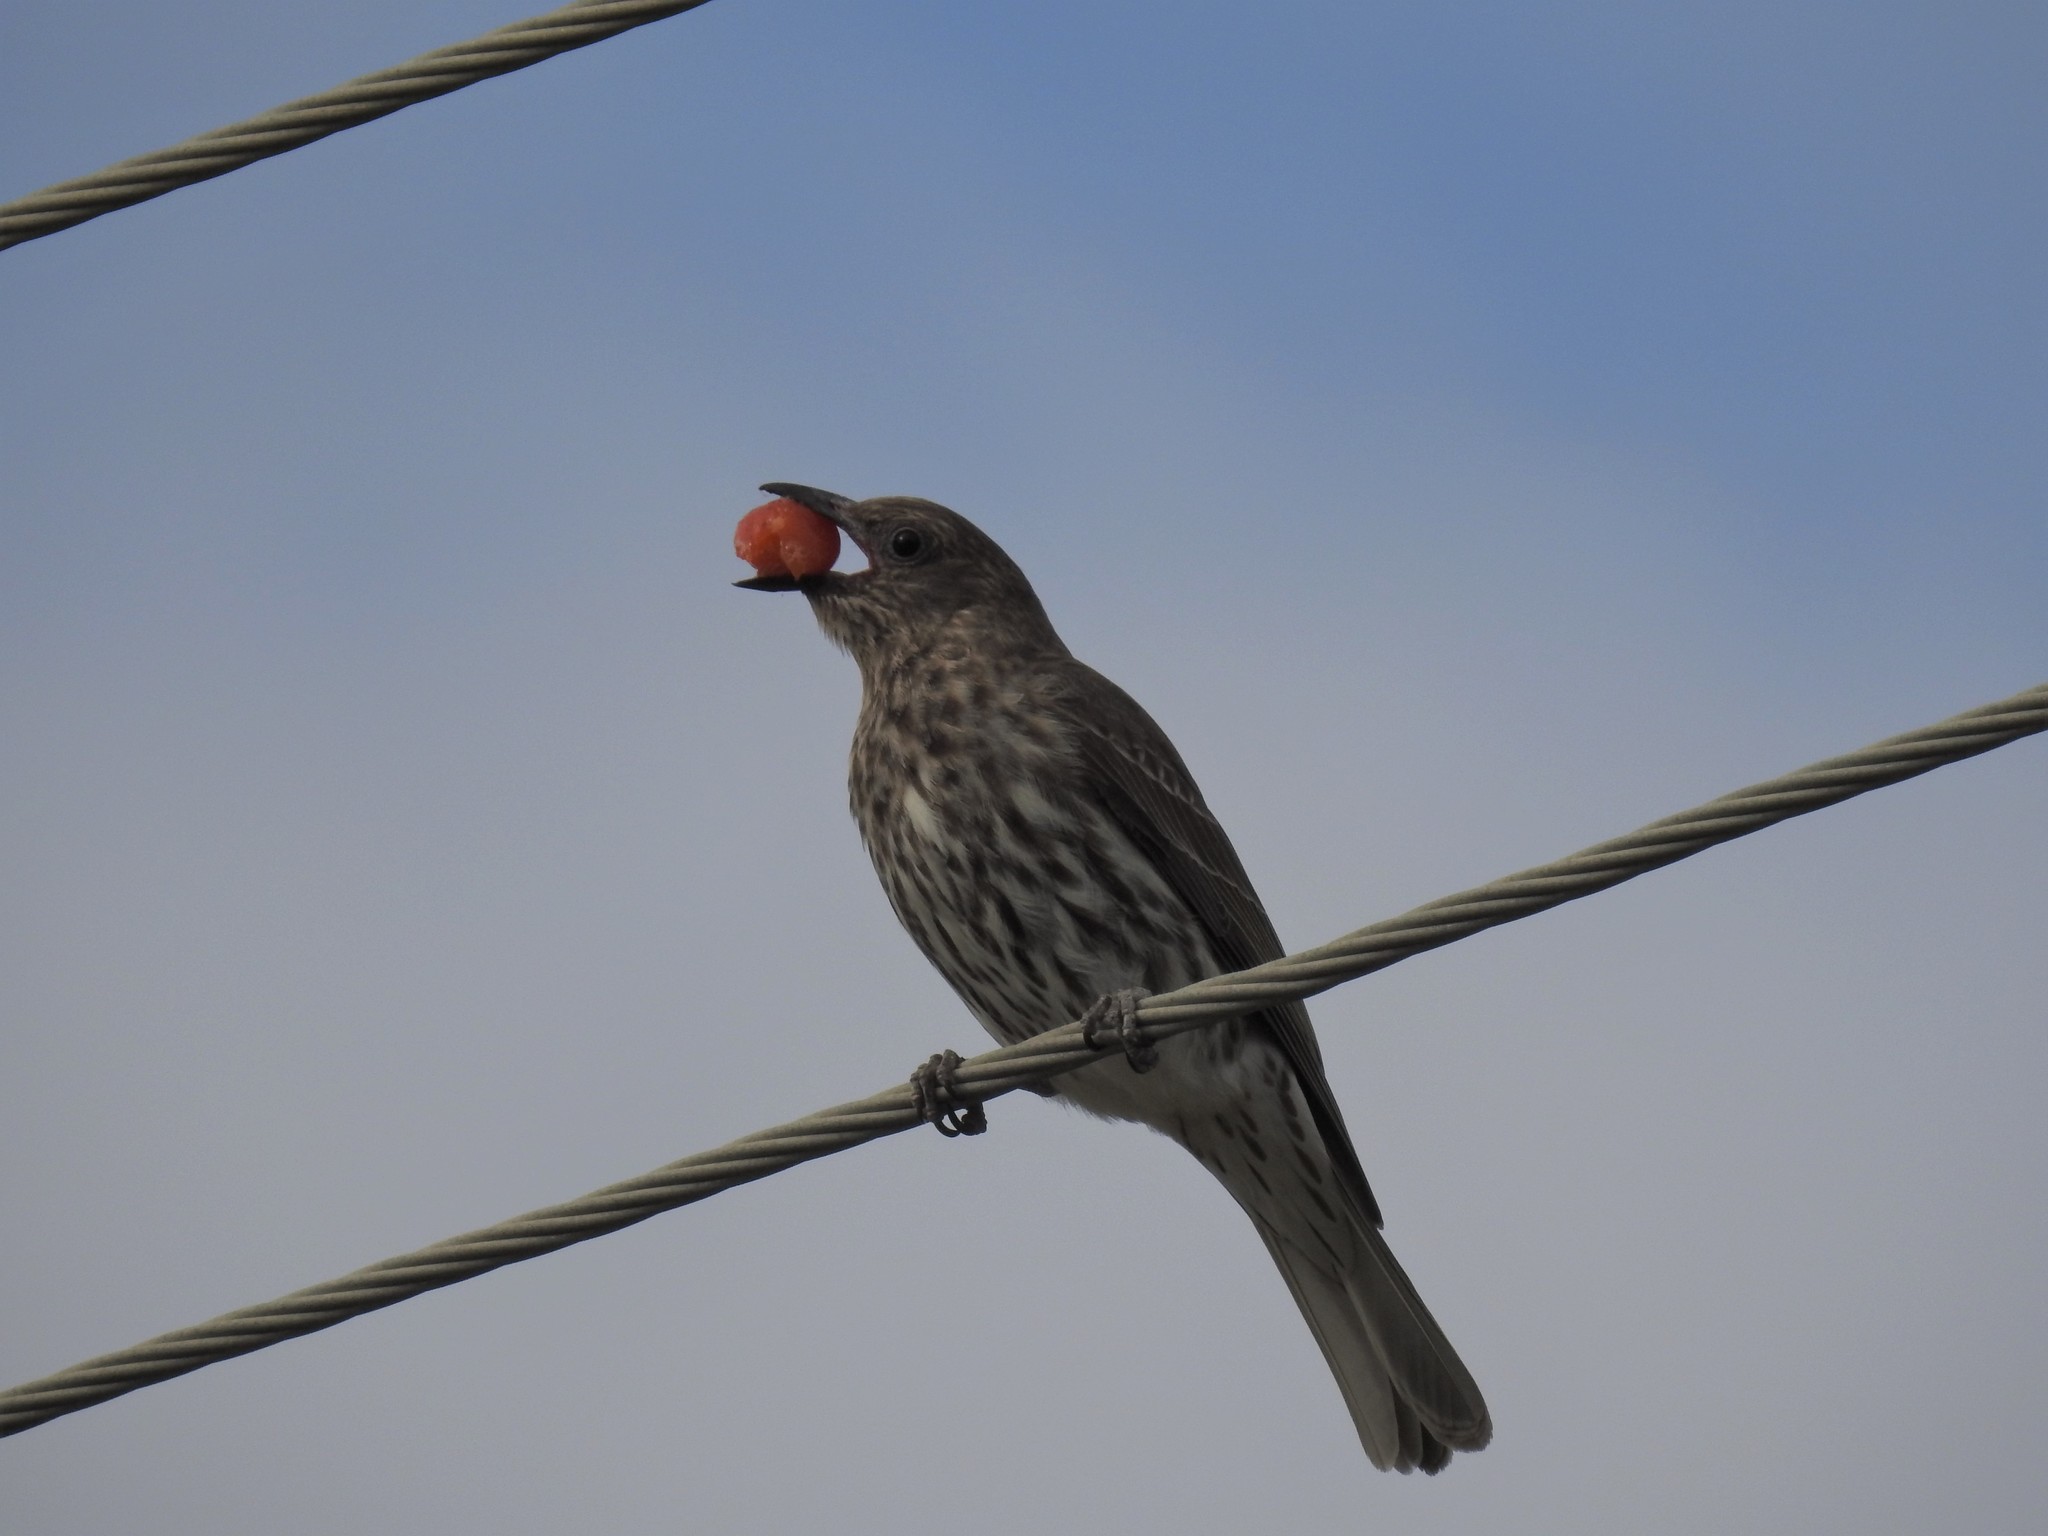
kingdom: Animalia
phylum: Chordata
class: Aves
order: Passeriformes
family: Oriolidae
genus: Sphecotheres
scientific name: Sphecotheres vieilloti
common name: Australasian figbird
